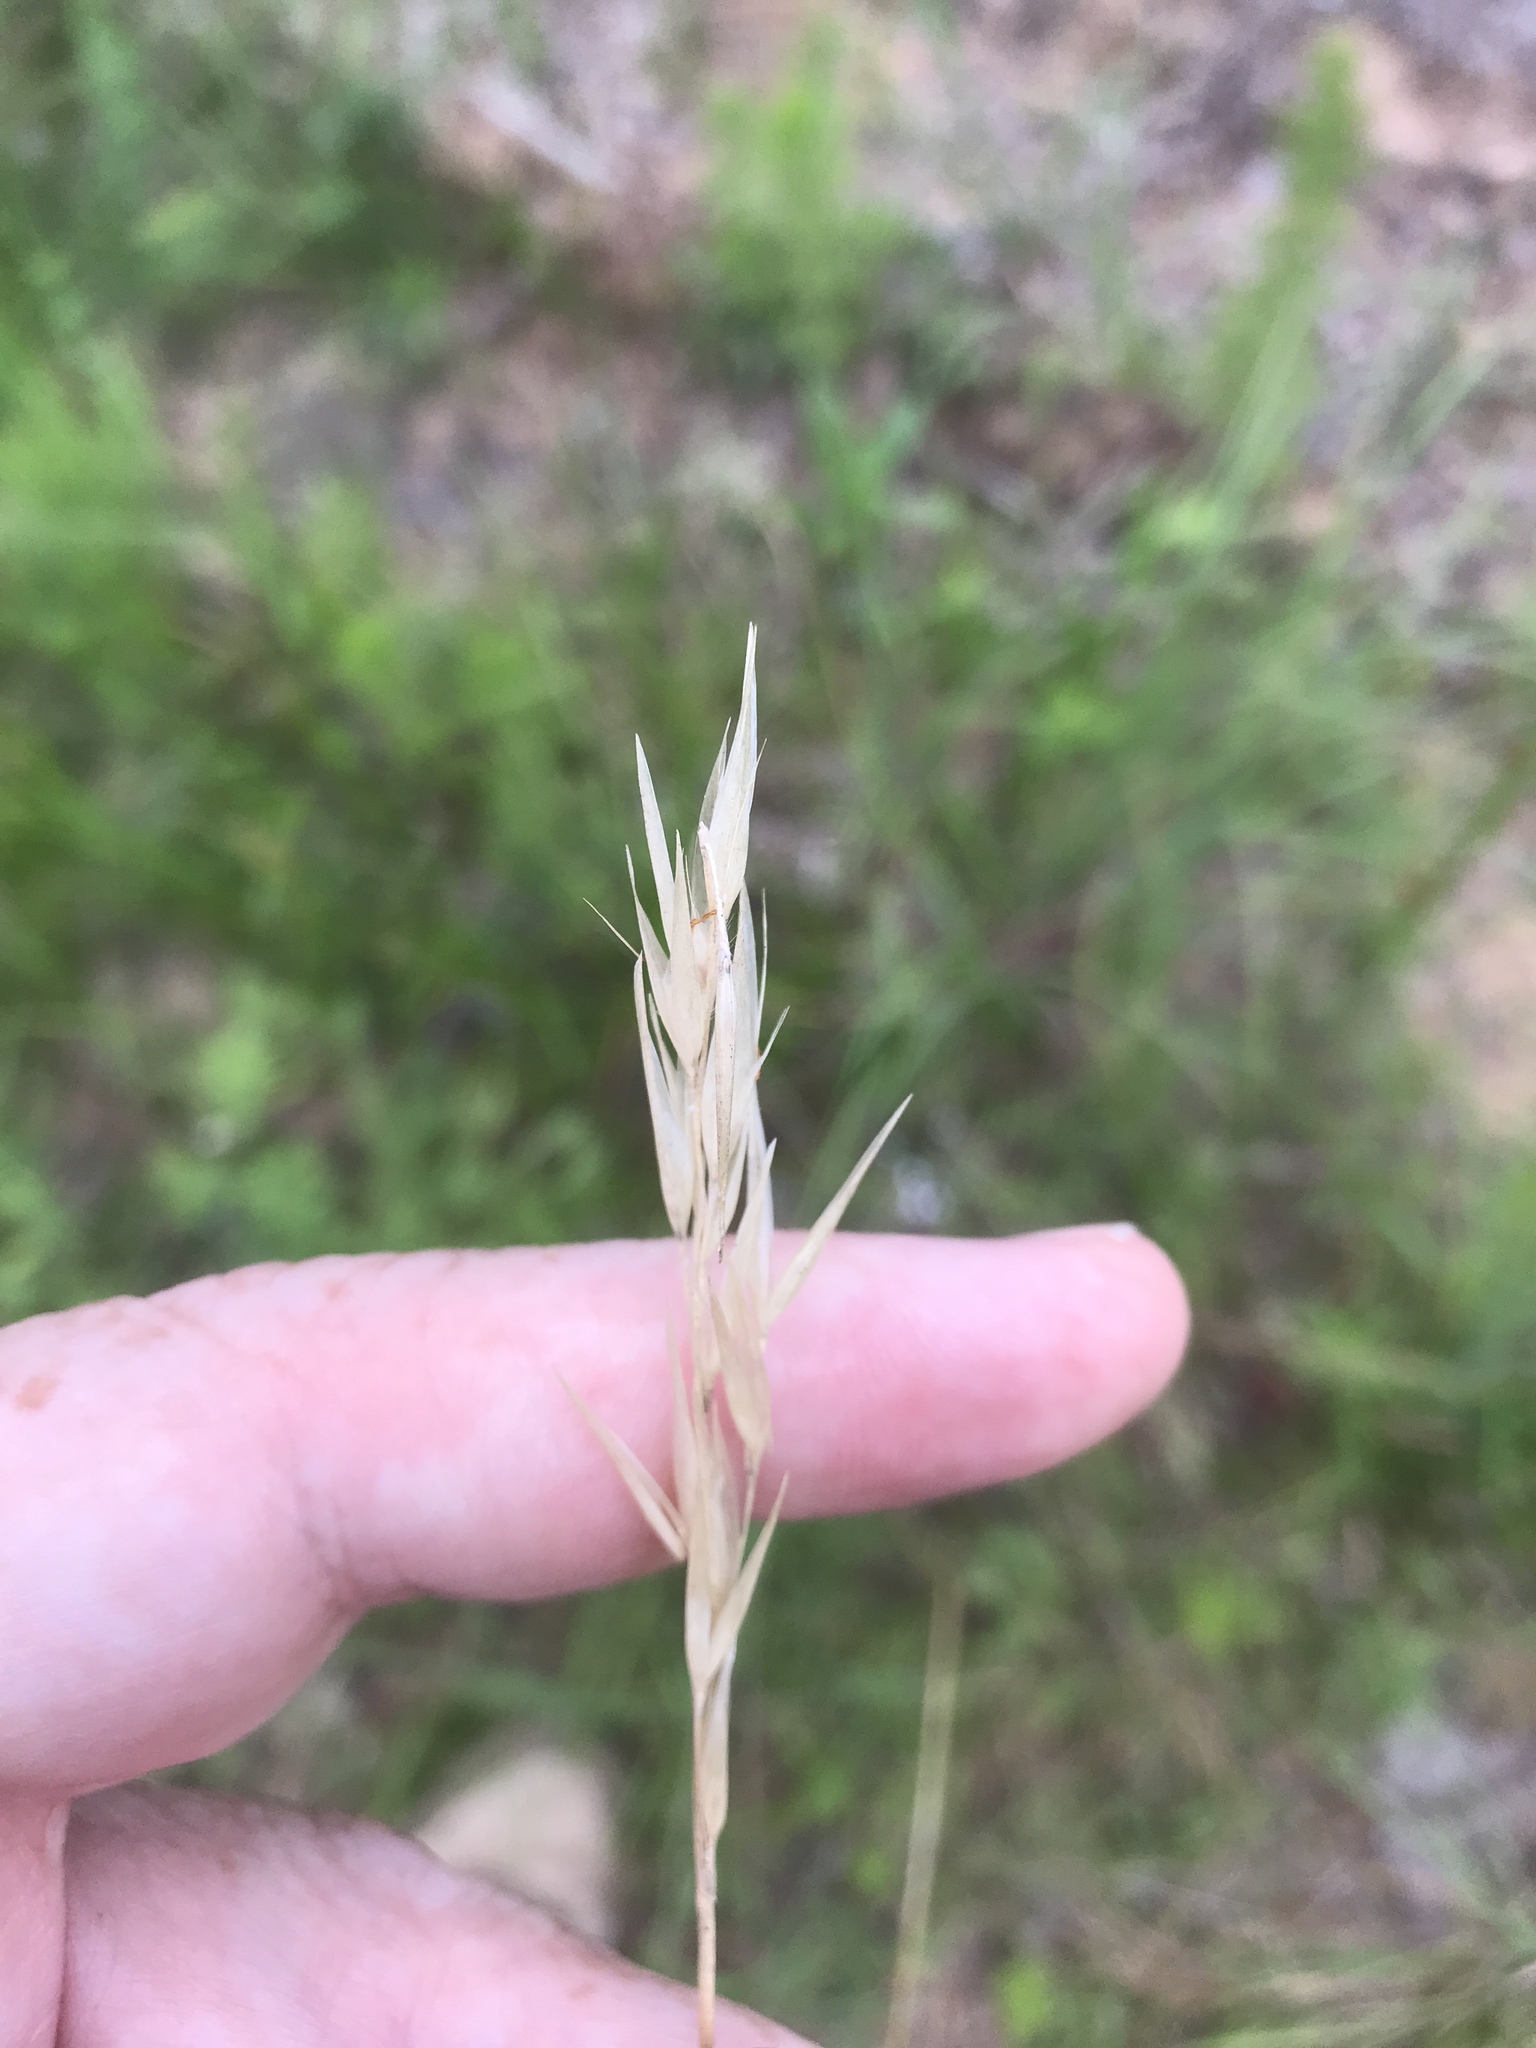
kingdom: Plantae
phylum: Tracheophyta
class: Liliopsida
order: Poales
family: Poaceae
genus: Danthonia
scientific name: Danthonia sericea
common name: Downy danthonia
